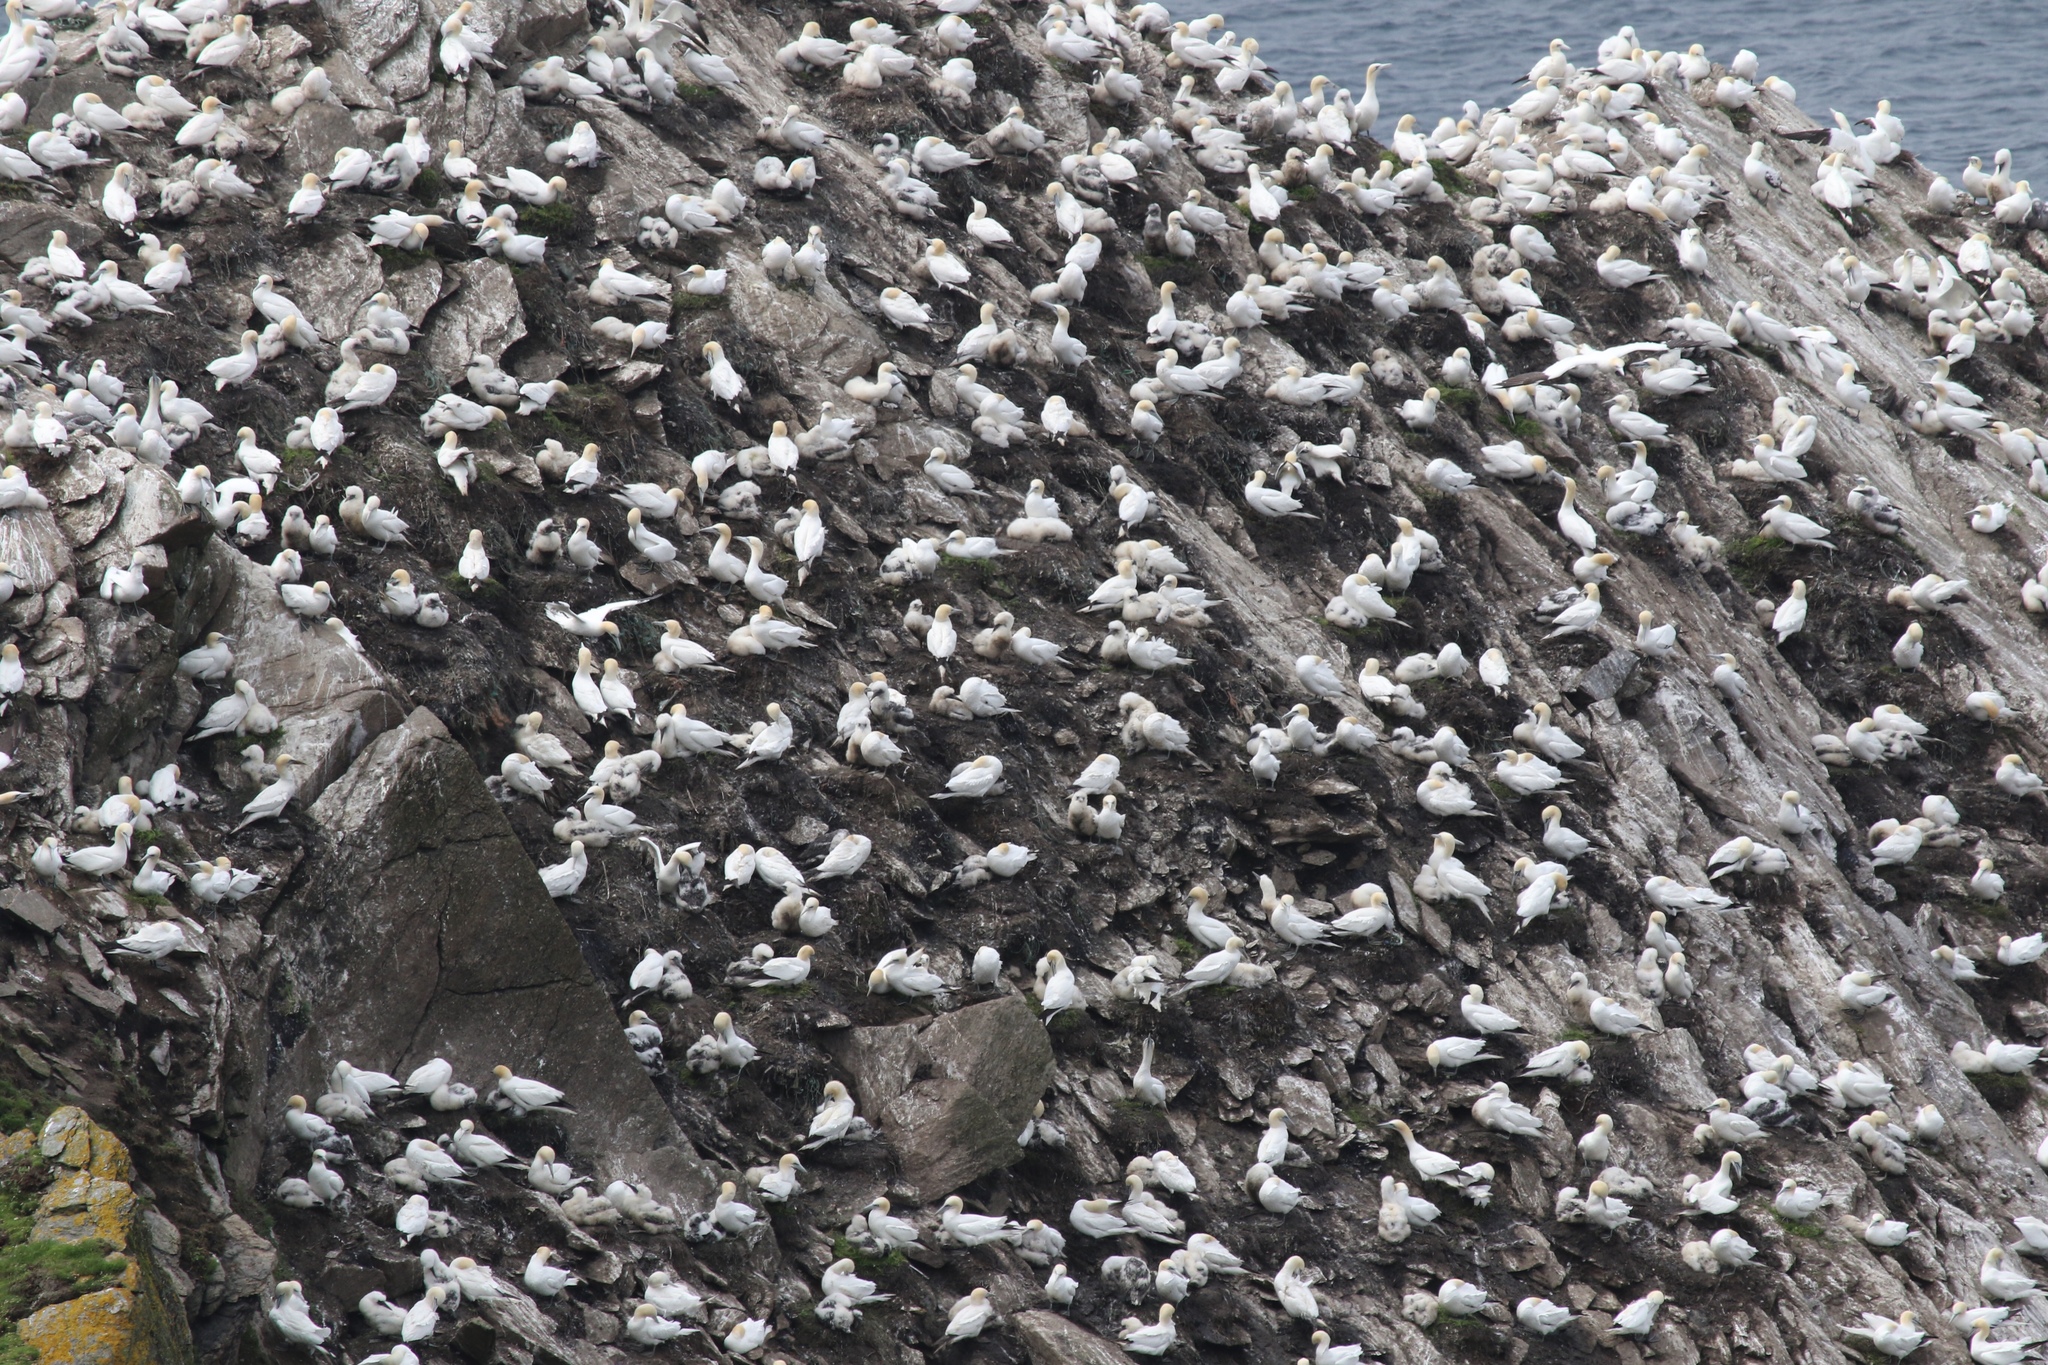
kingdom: Animalia
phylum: Chordata
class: Aves
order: Suliformes
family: Sulidae
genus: Morus
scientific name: Morus bassanus
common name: Northern gannet
